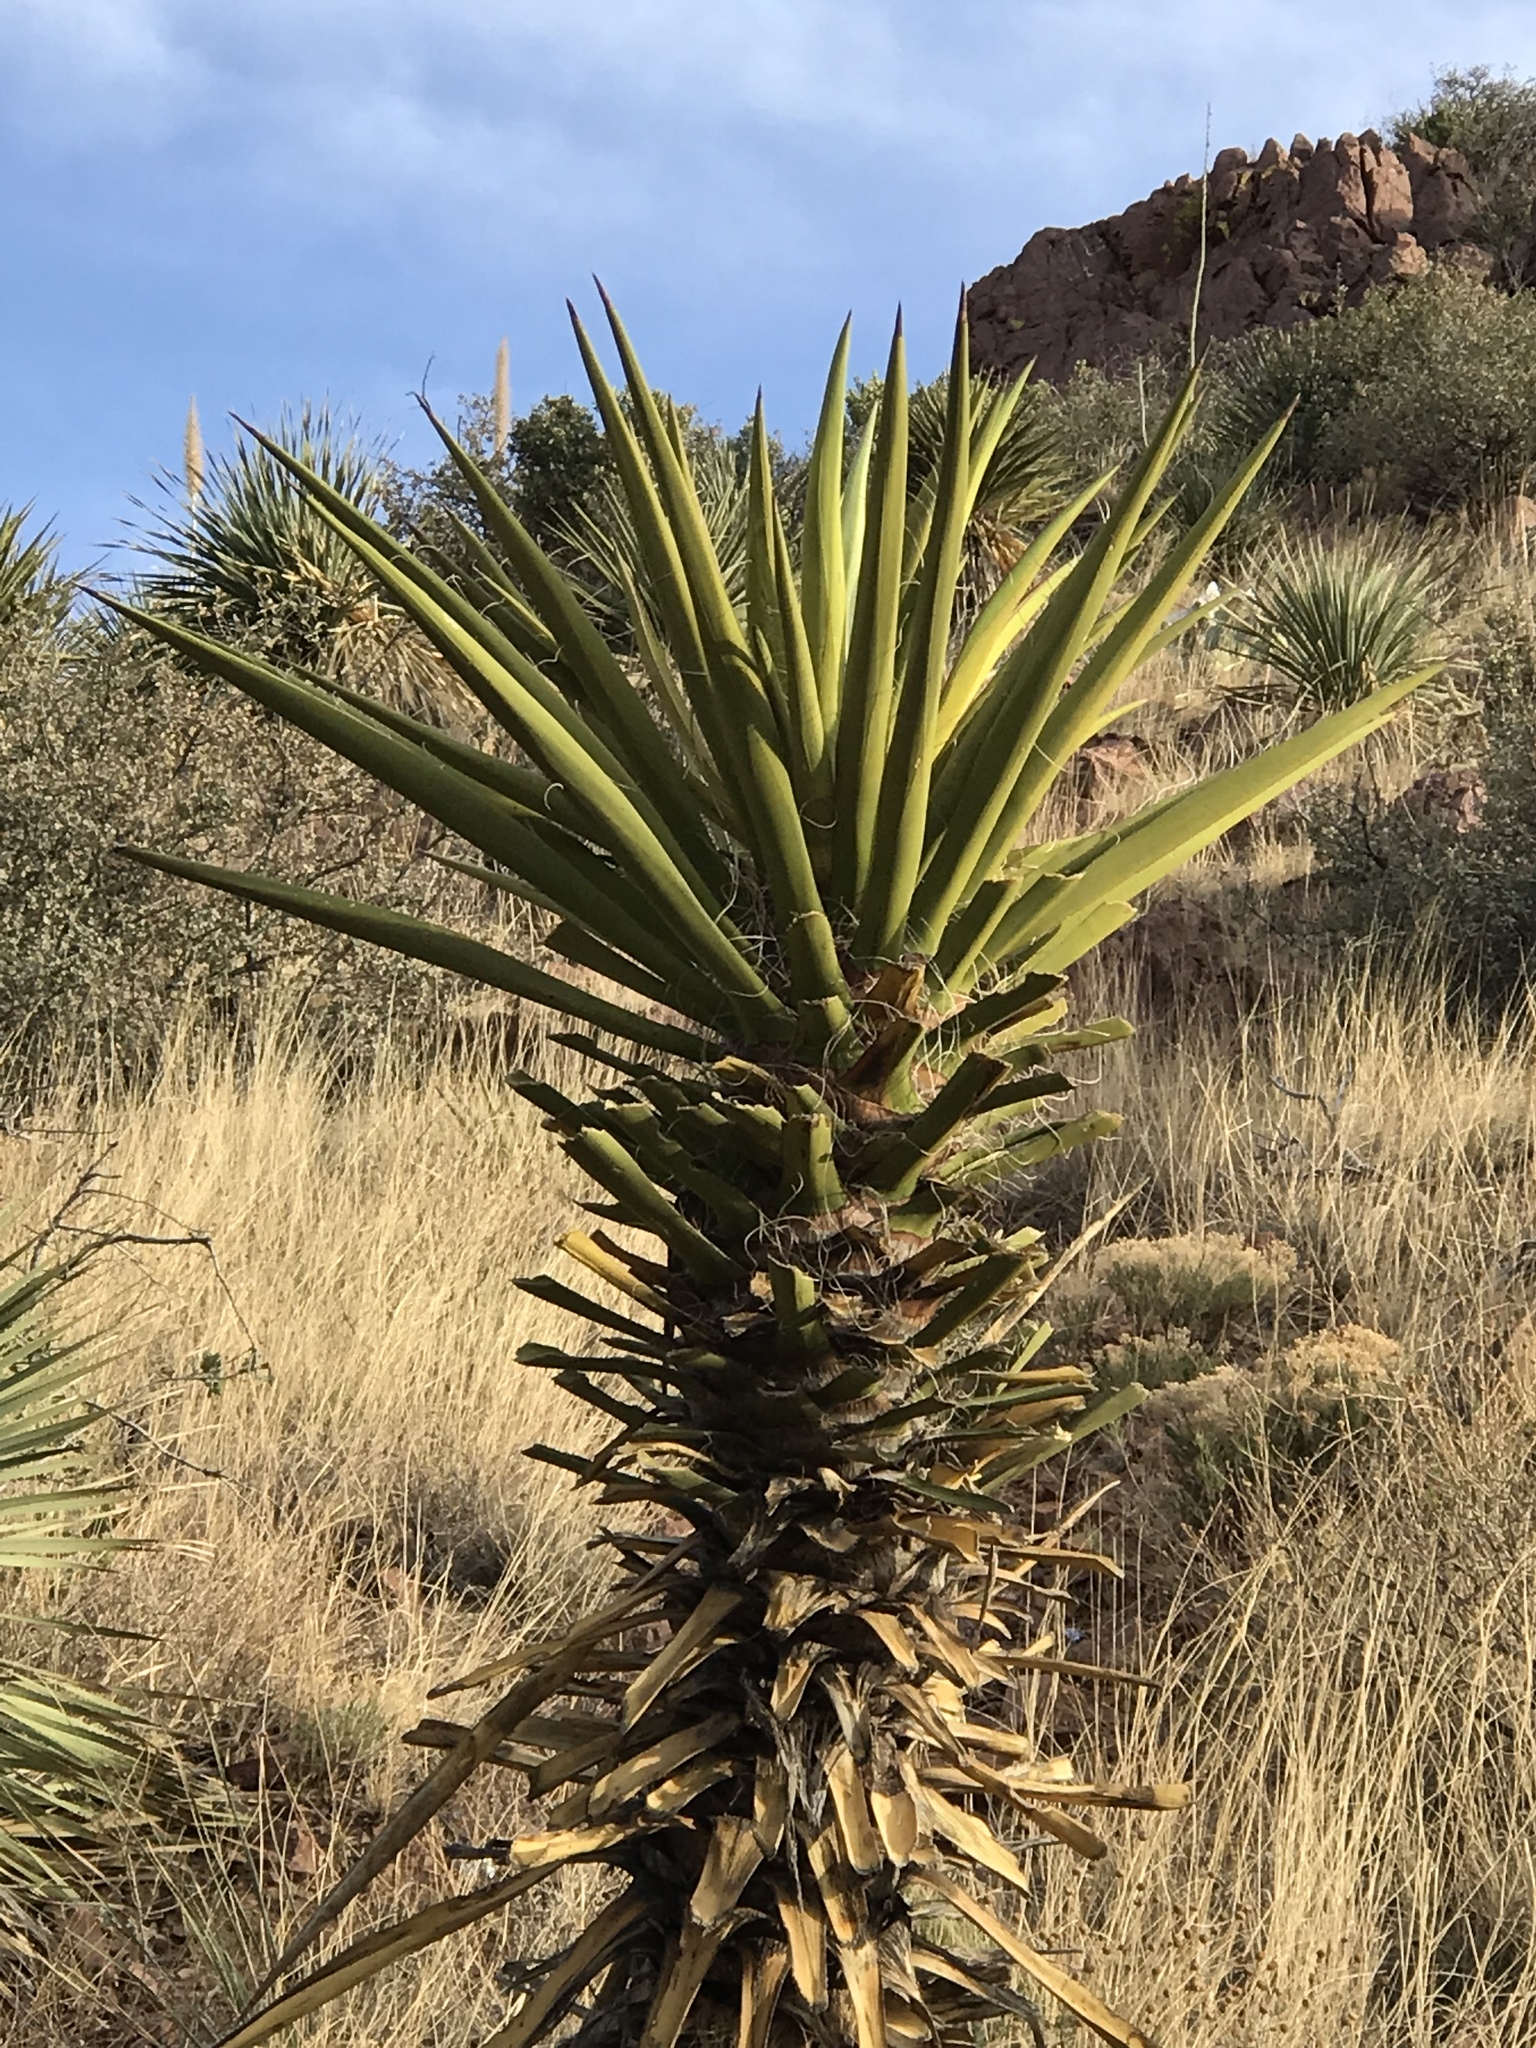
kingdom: Plantae
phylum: Tracheophyta
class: Liliopsida
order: Asparagales
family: Asparagaceae
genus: Yucca
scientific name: Yucca treculiana
